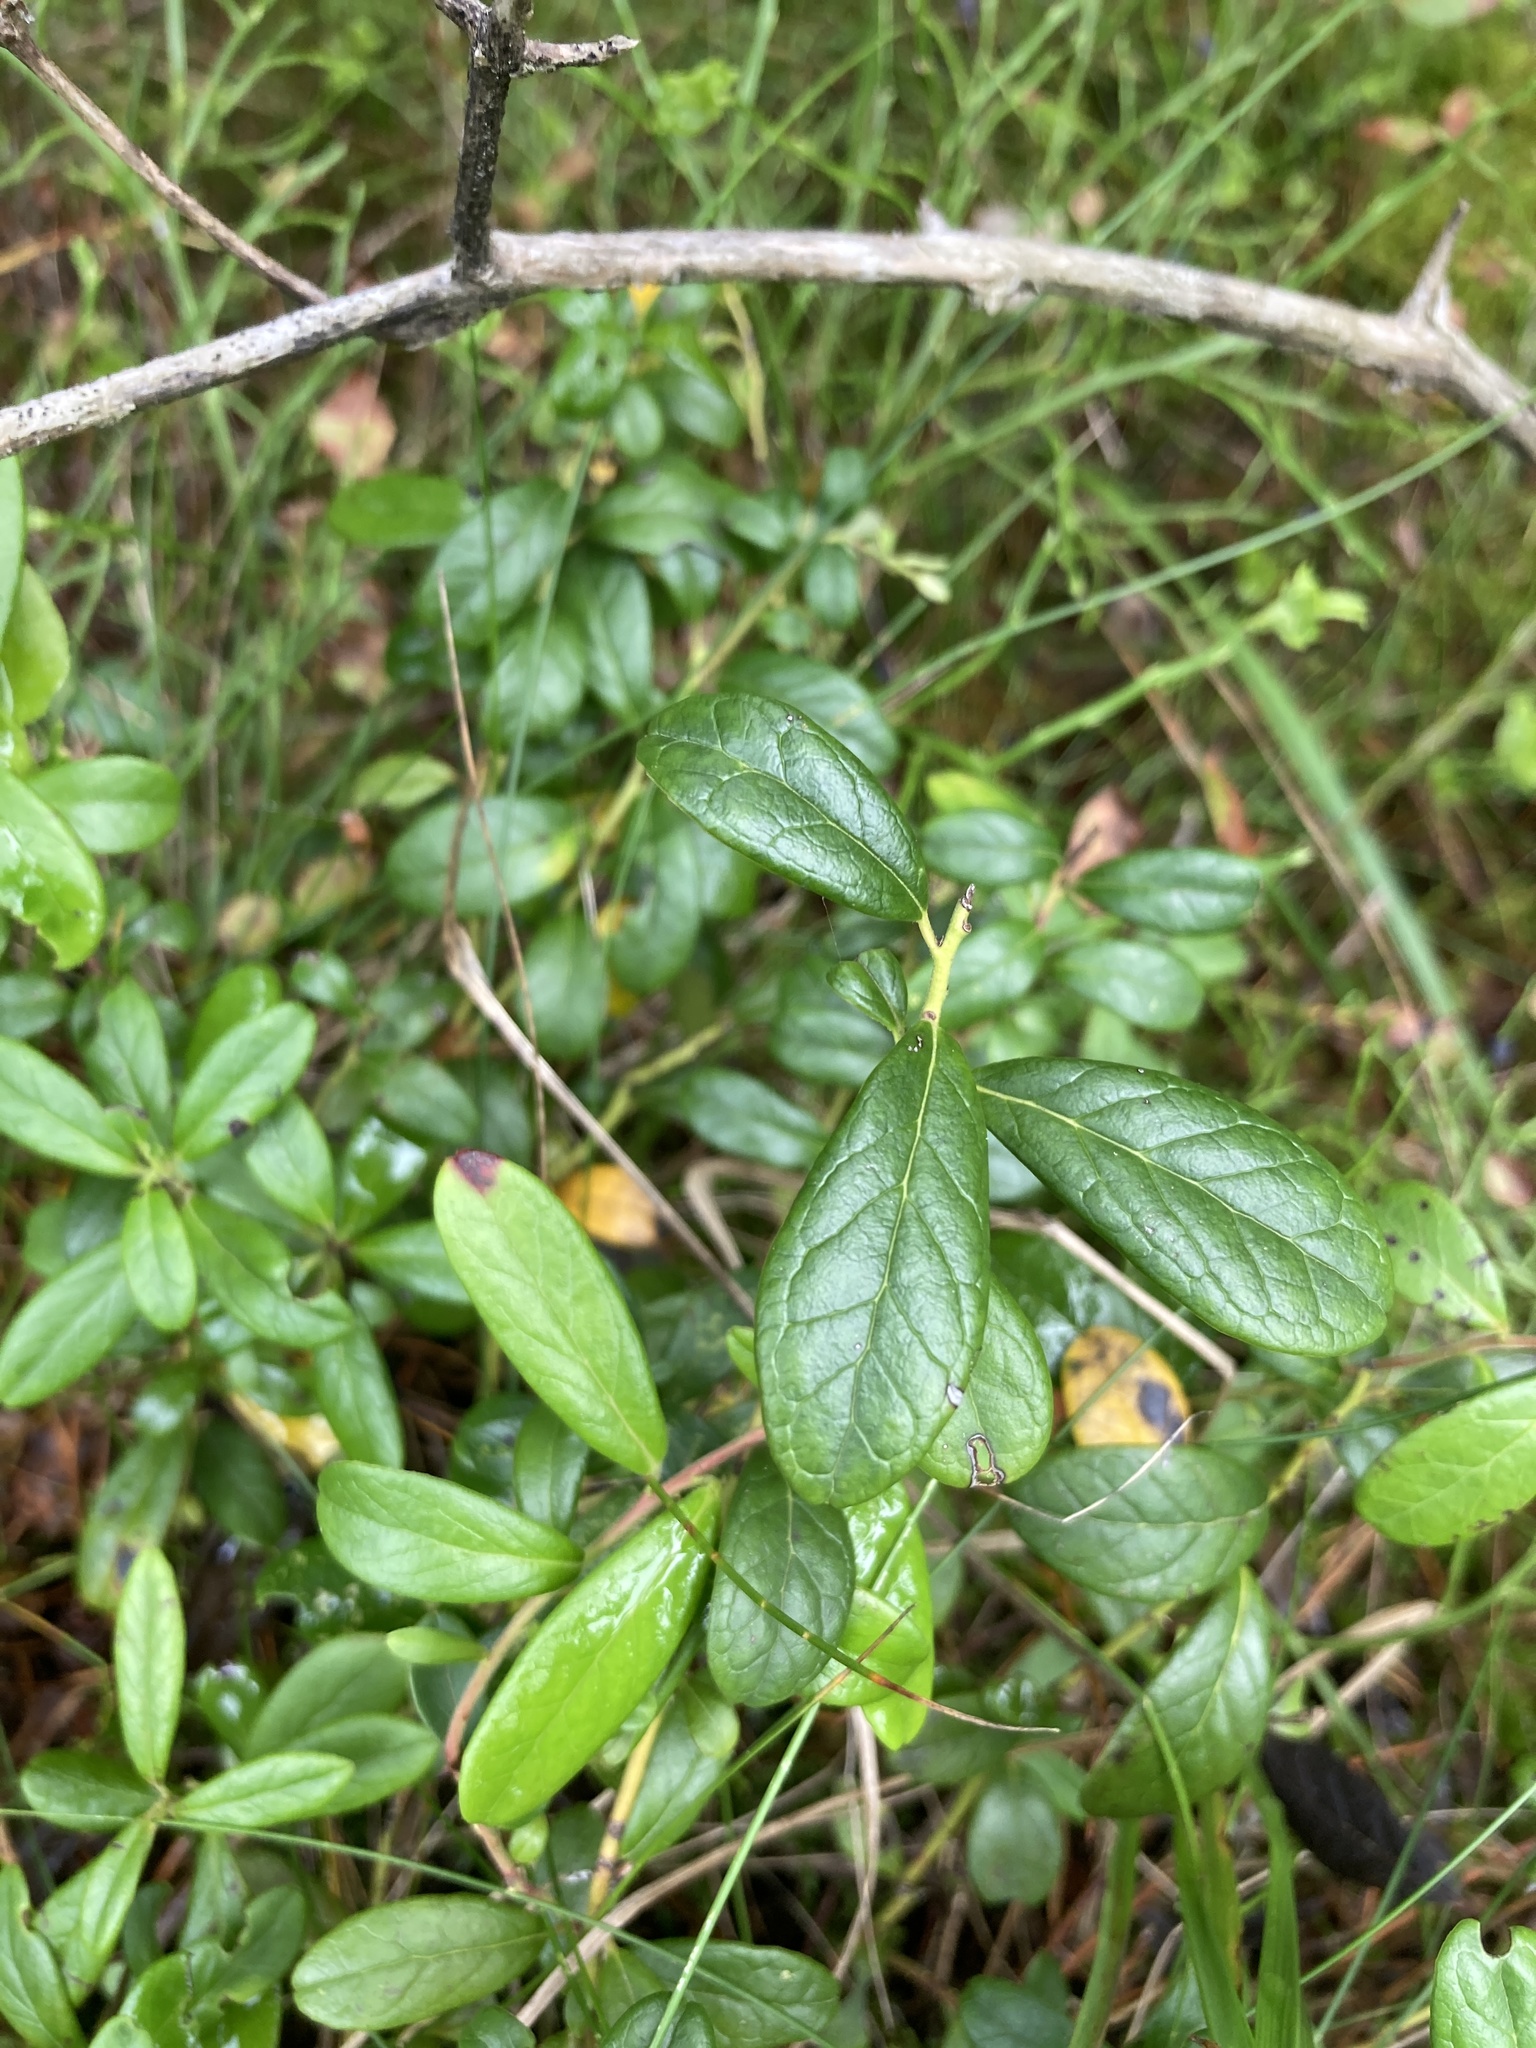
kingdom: Plantae
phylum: Tracheophyta
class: Magnoliopsida
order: Ericales
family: Ericaceae
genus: Vaccinium
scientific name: Vaccinium vitis-idaea
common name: Cowberry
